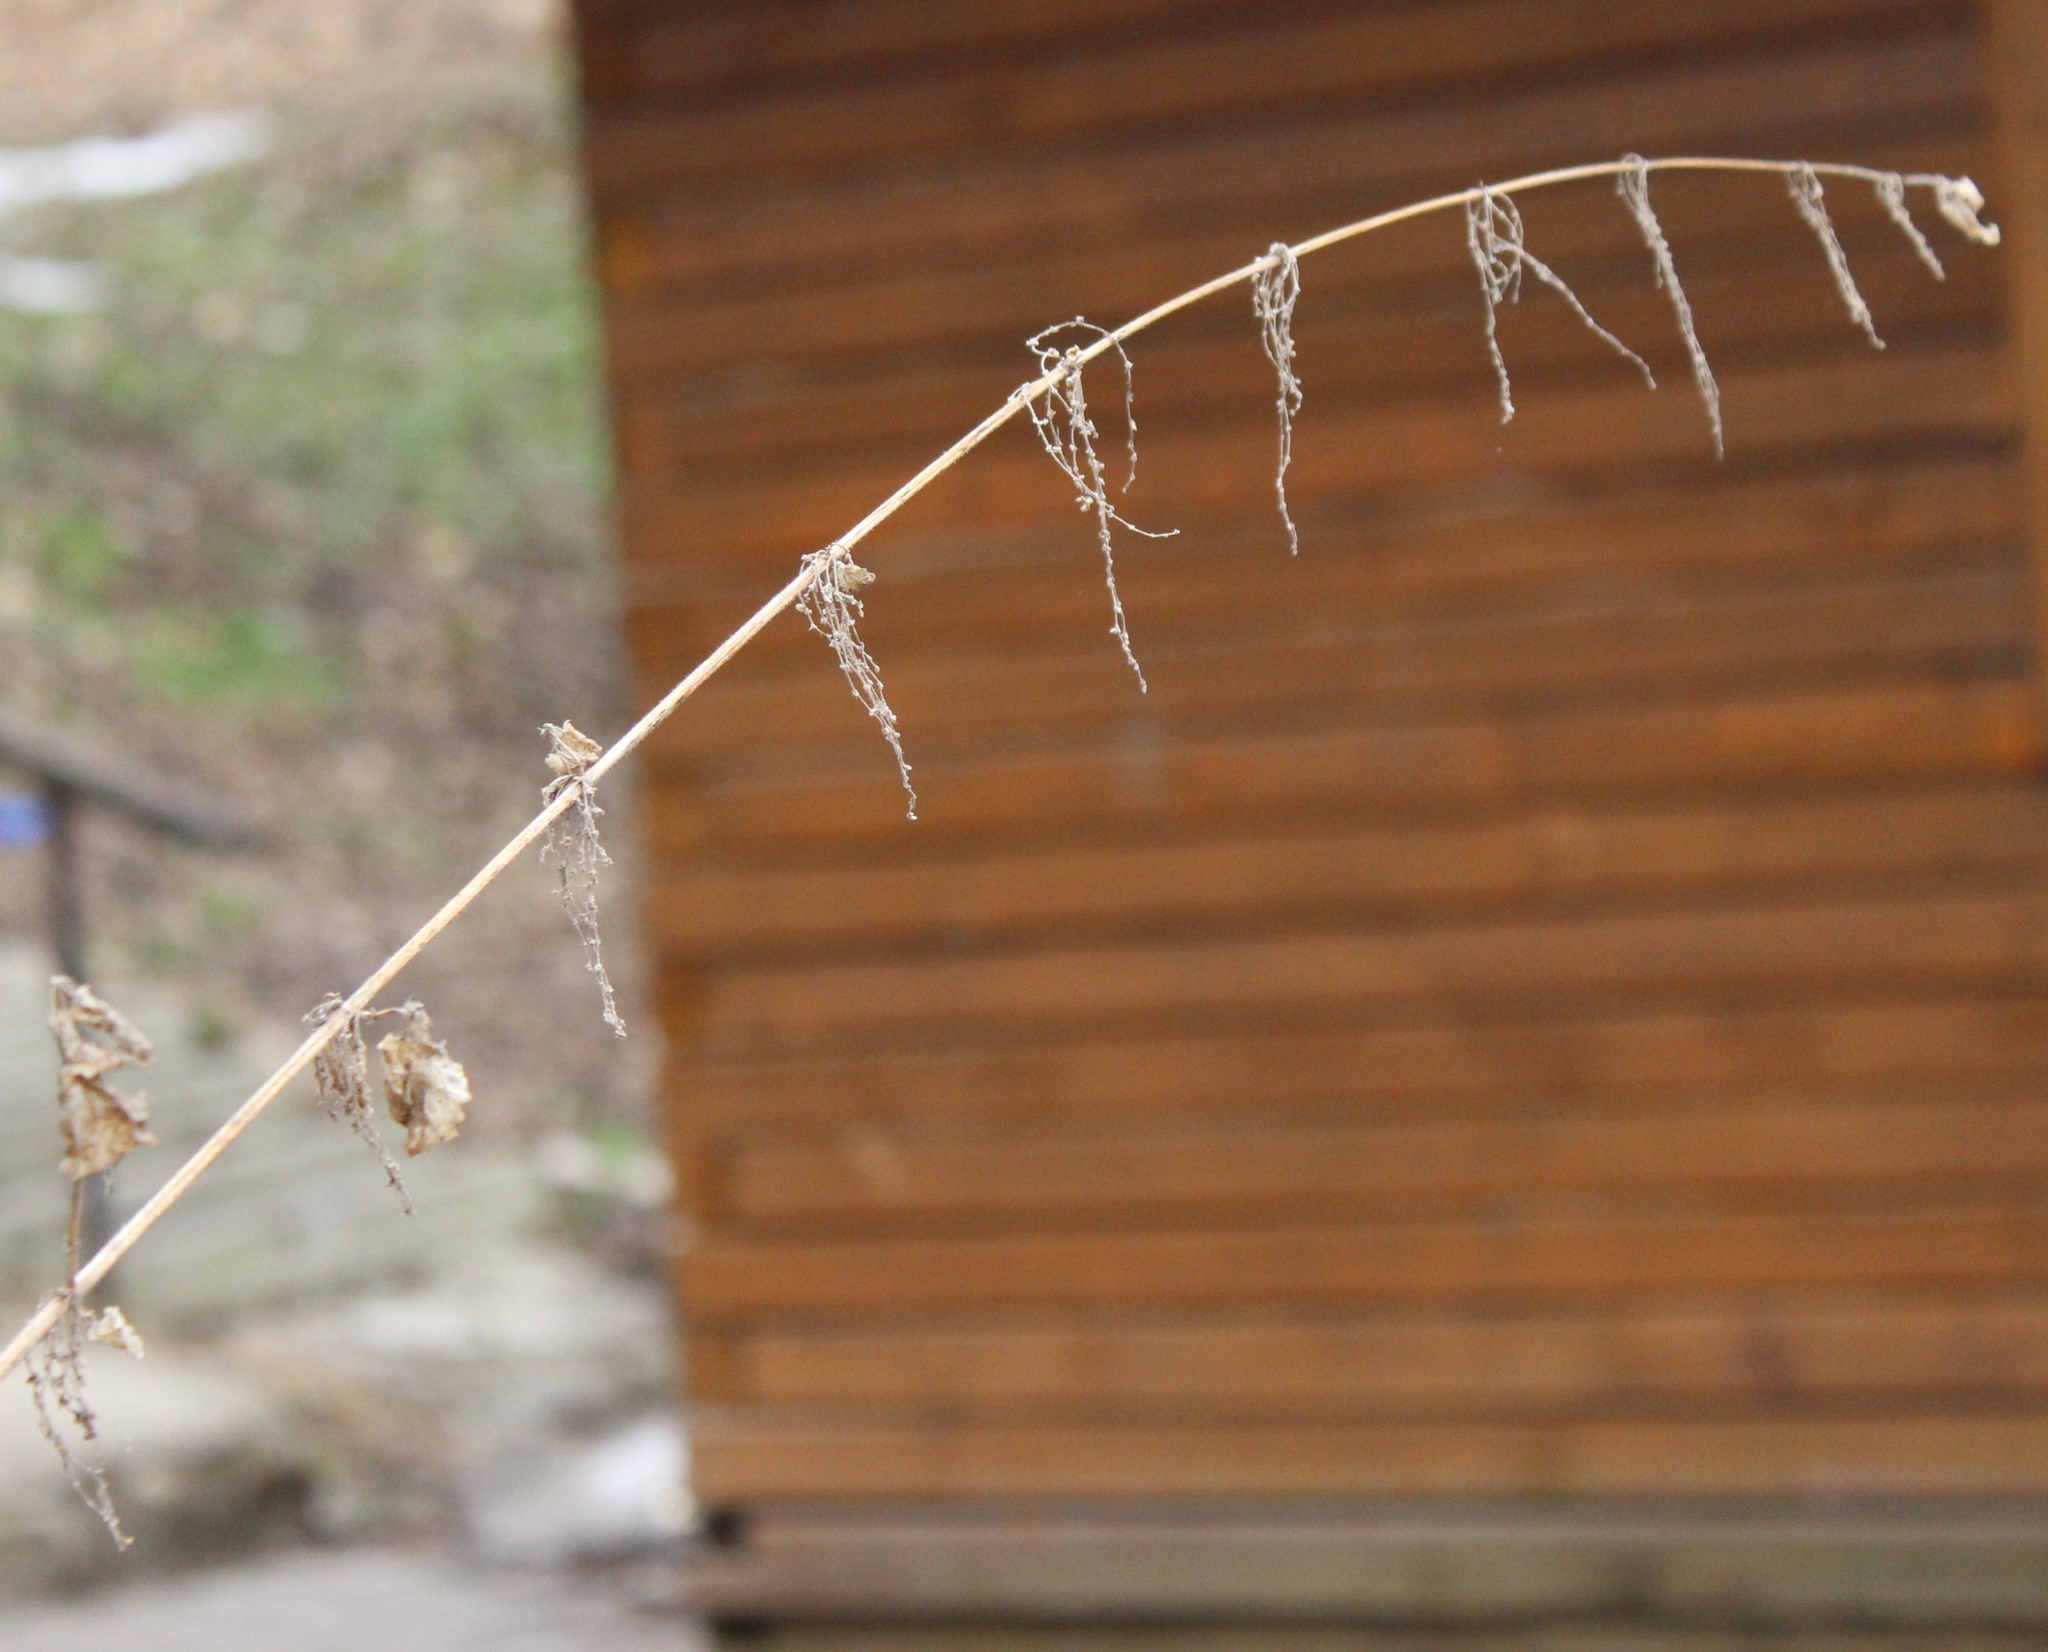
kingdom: Plantae
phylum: Tracheophyta
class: Magnoliopsida
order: Rosales
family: Urticaceae
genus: Urtica
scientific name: Urtica dioica
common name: Common nettle
